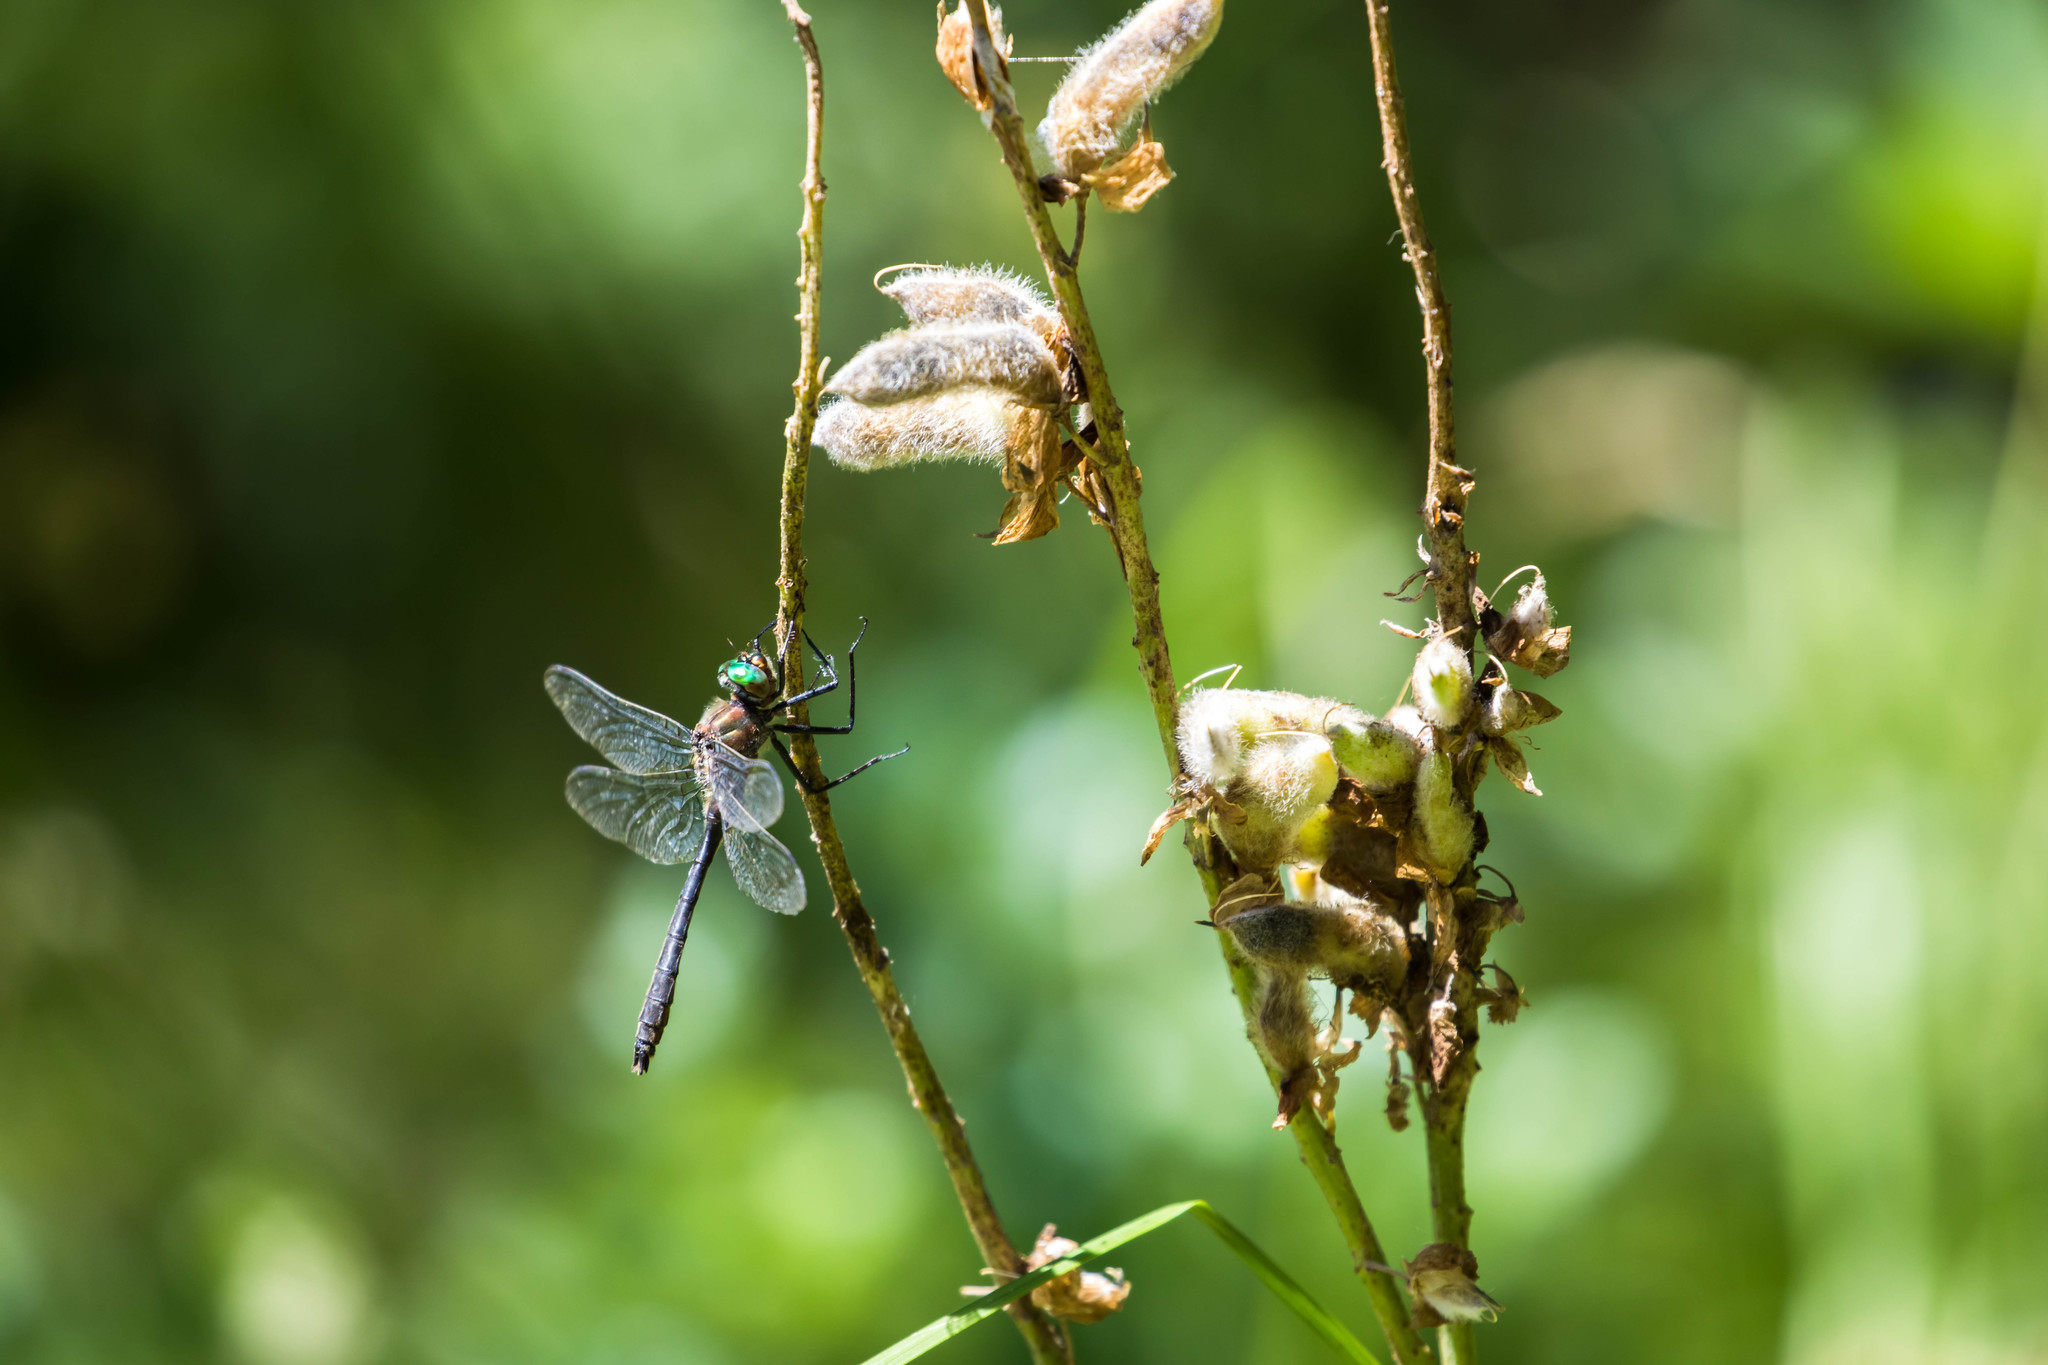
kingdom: Animalia
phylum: Arthropoda
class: Insecta
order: Odonata
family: Corduliidae
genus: Cordulia
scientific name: Cordulia shurtleffii
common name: American emerald
